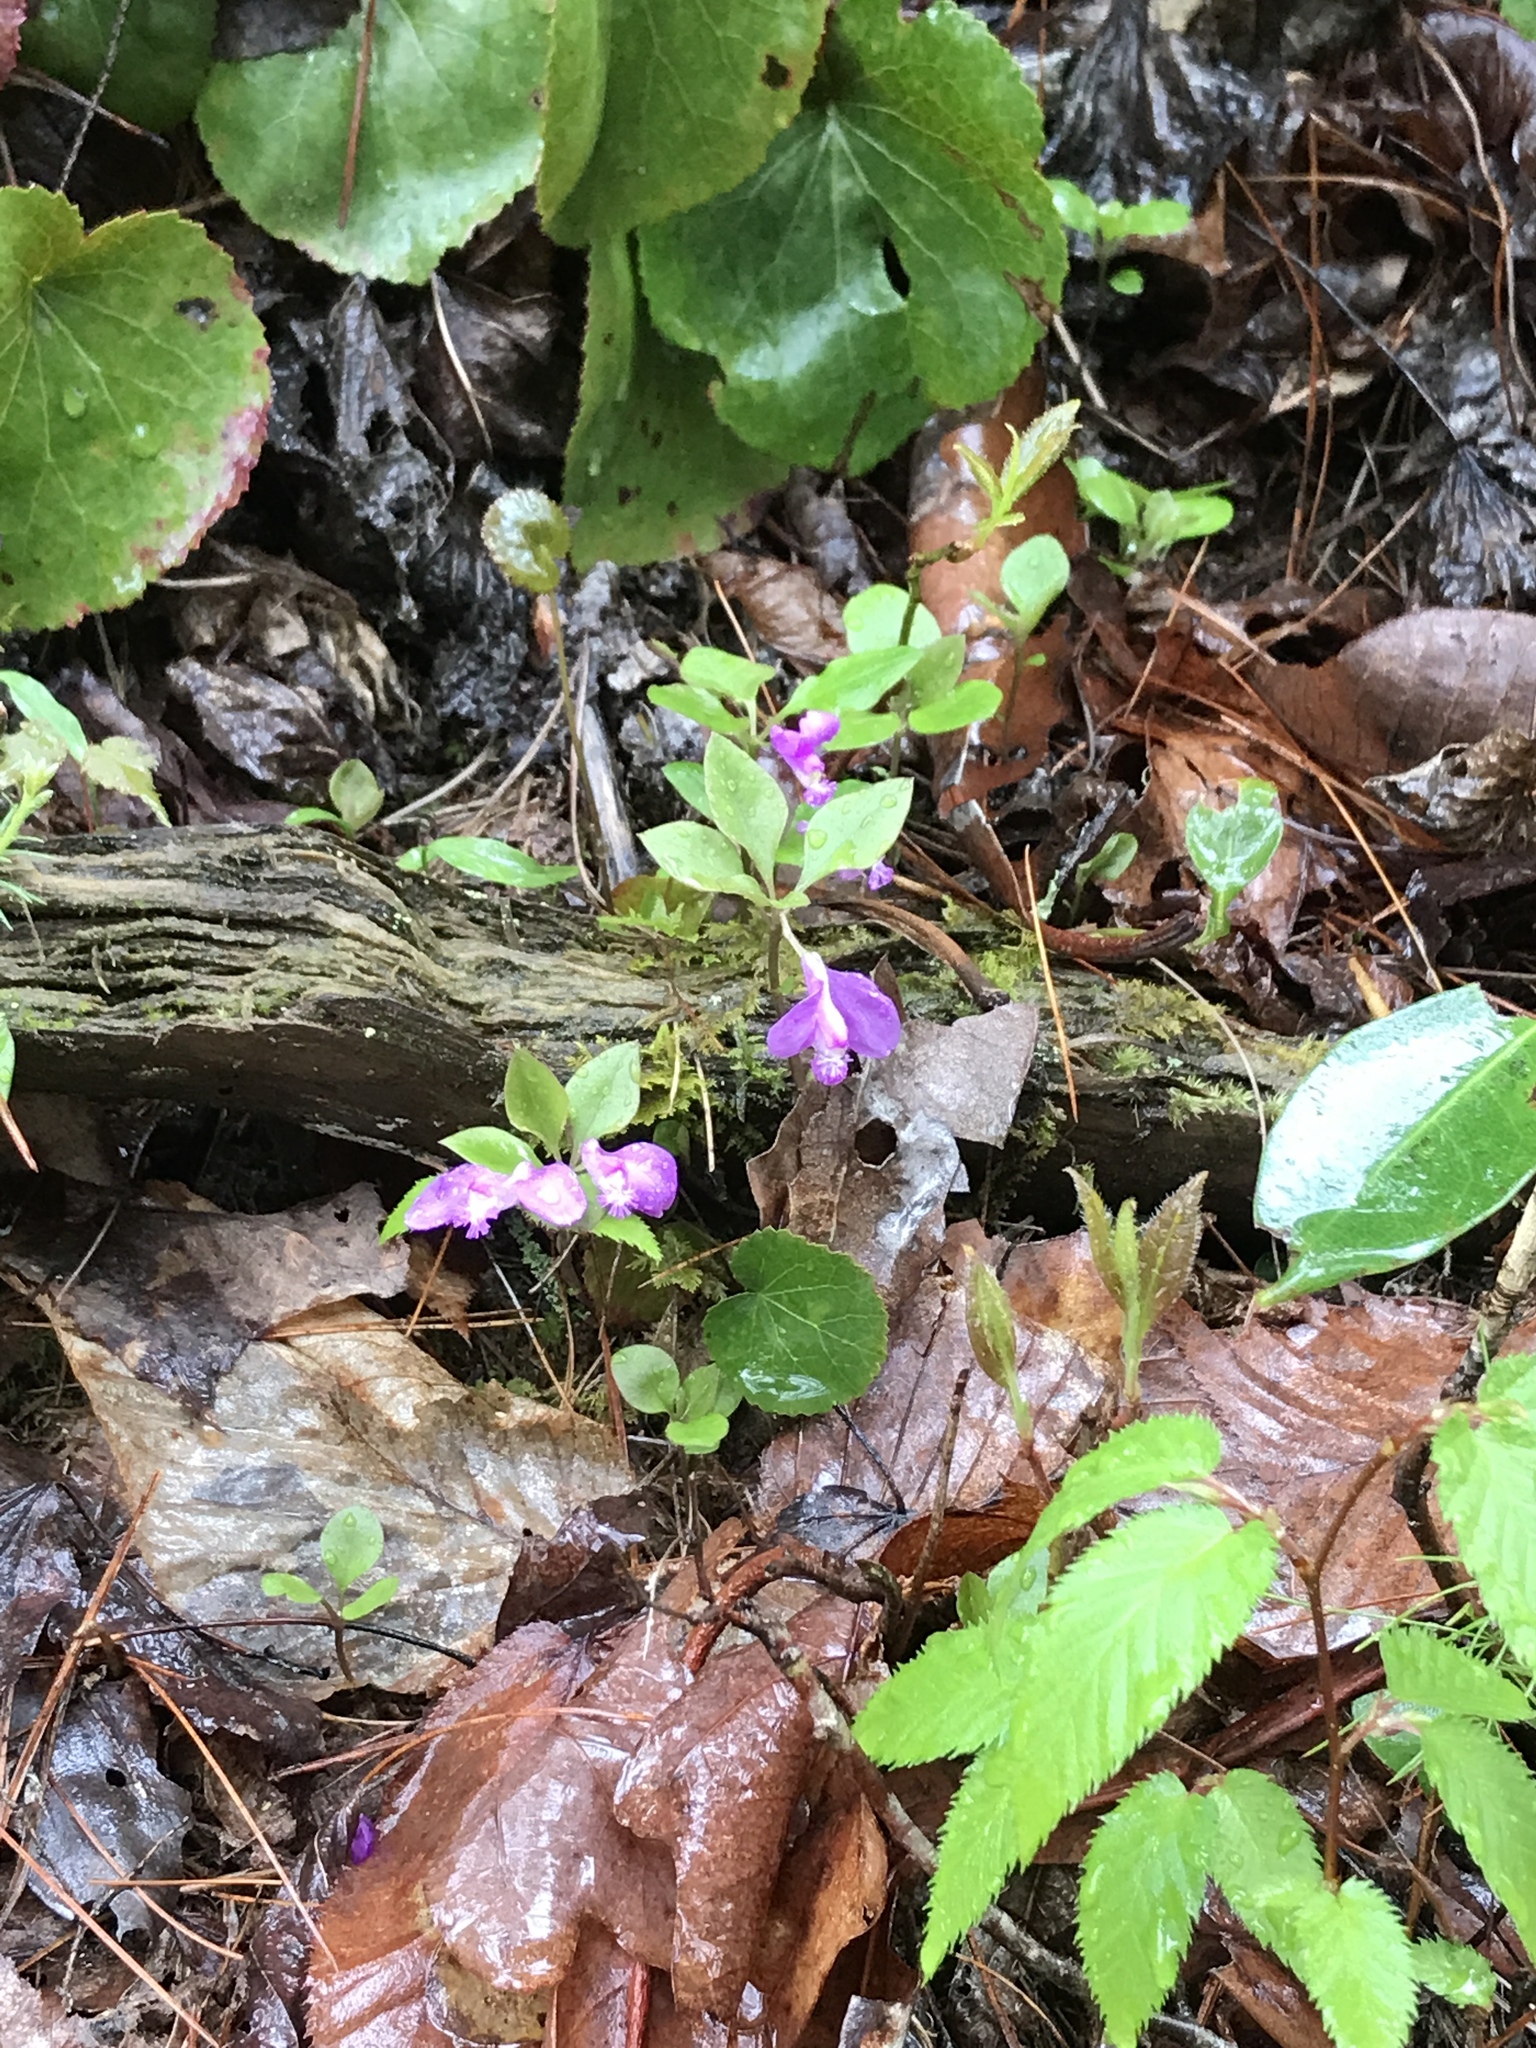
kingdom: Plantae
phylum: Tracheophyta
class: Magnoliopsida
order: Fabales
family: Polygalaceae
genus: Polygaloides
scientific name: Polygaloides paucifolia
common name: Bird-on-the-wing
